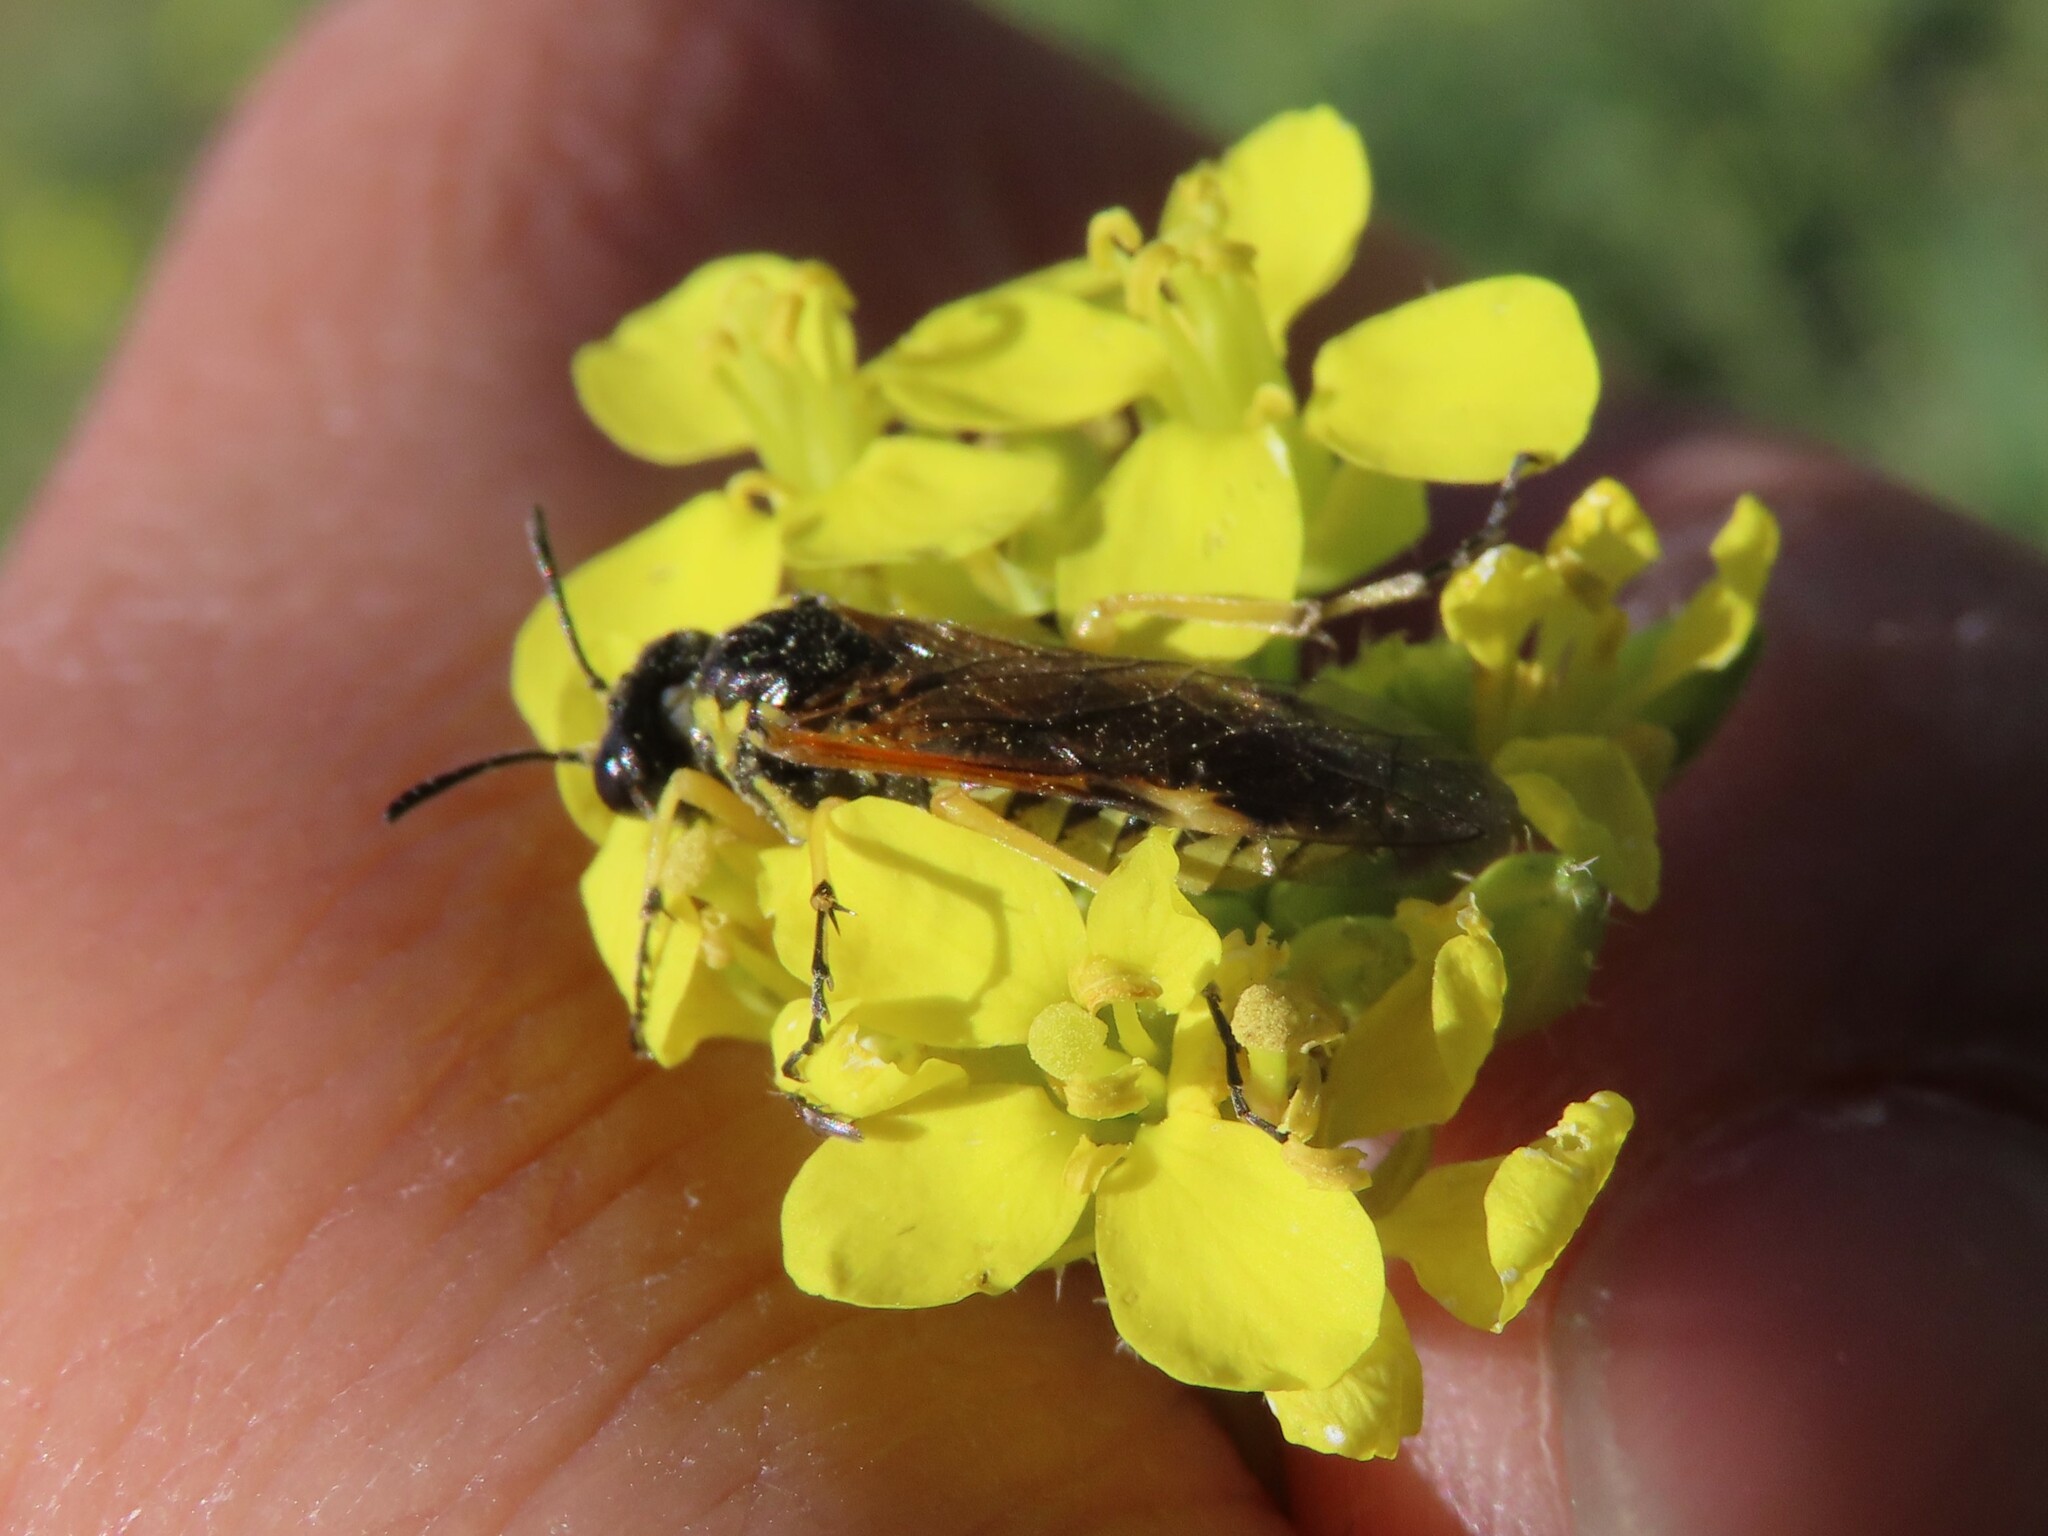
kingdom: Animalia
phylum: Arthropoda
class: Insecta
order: Hymenoptera
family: Tenthredinidae
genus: Tenthredo
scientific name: Tenthredo baetica
